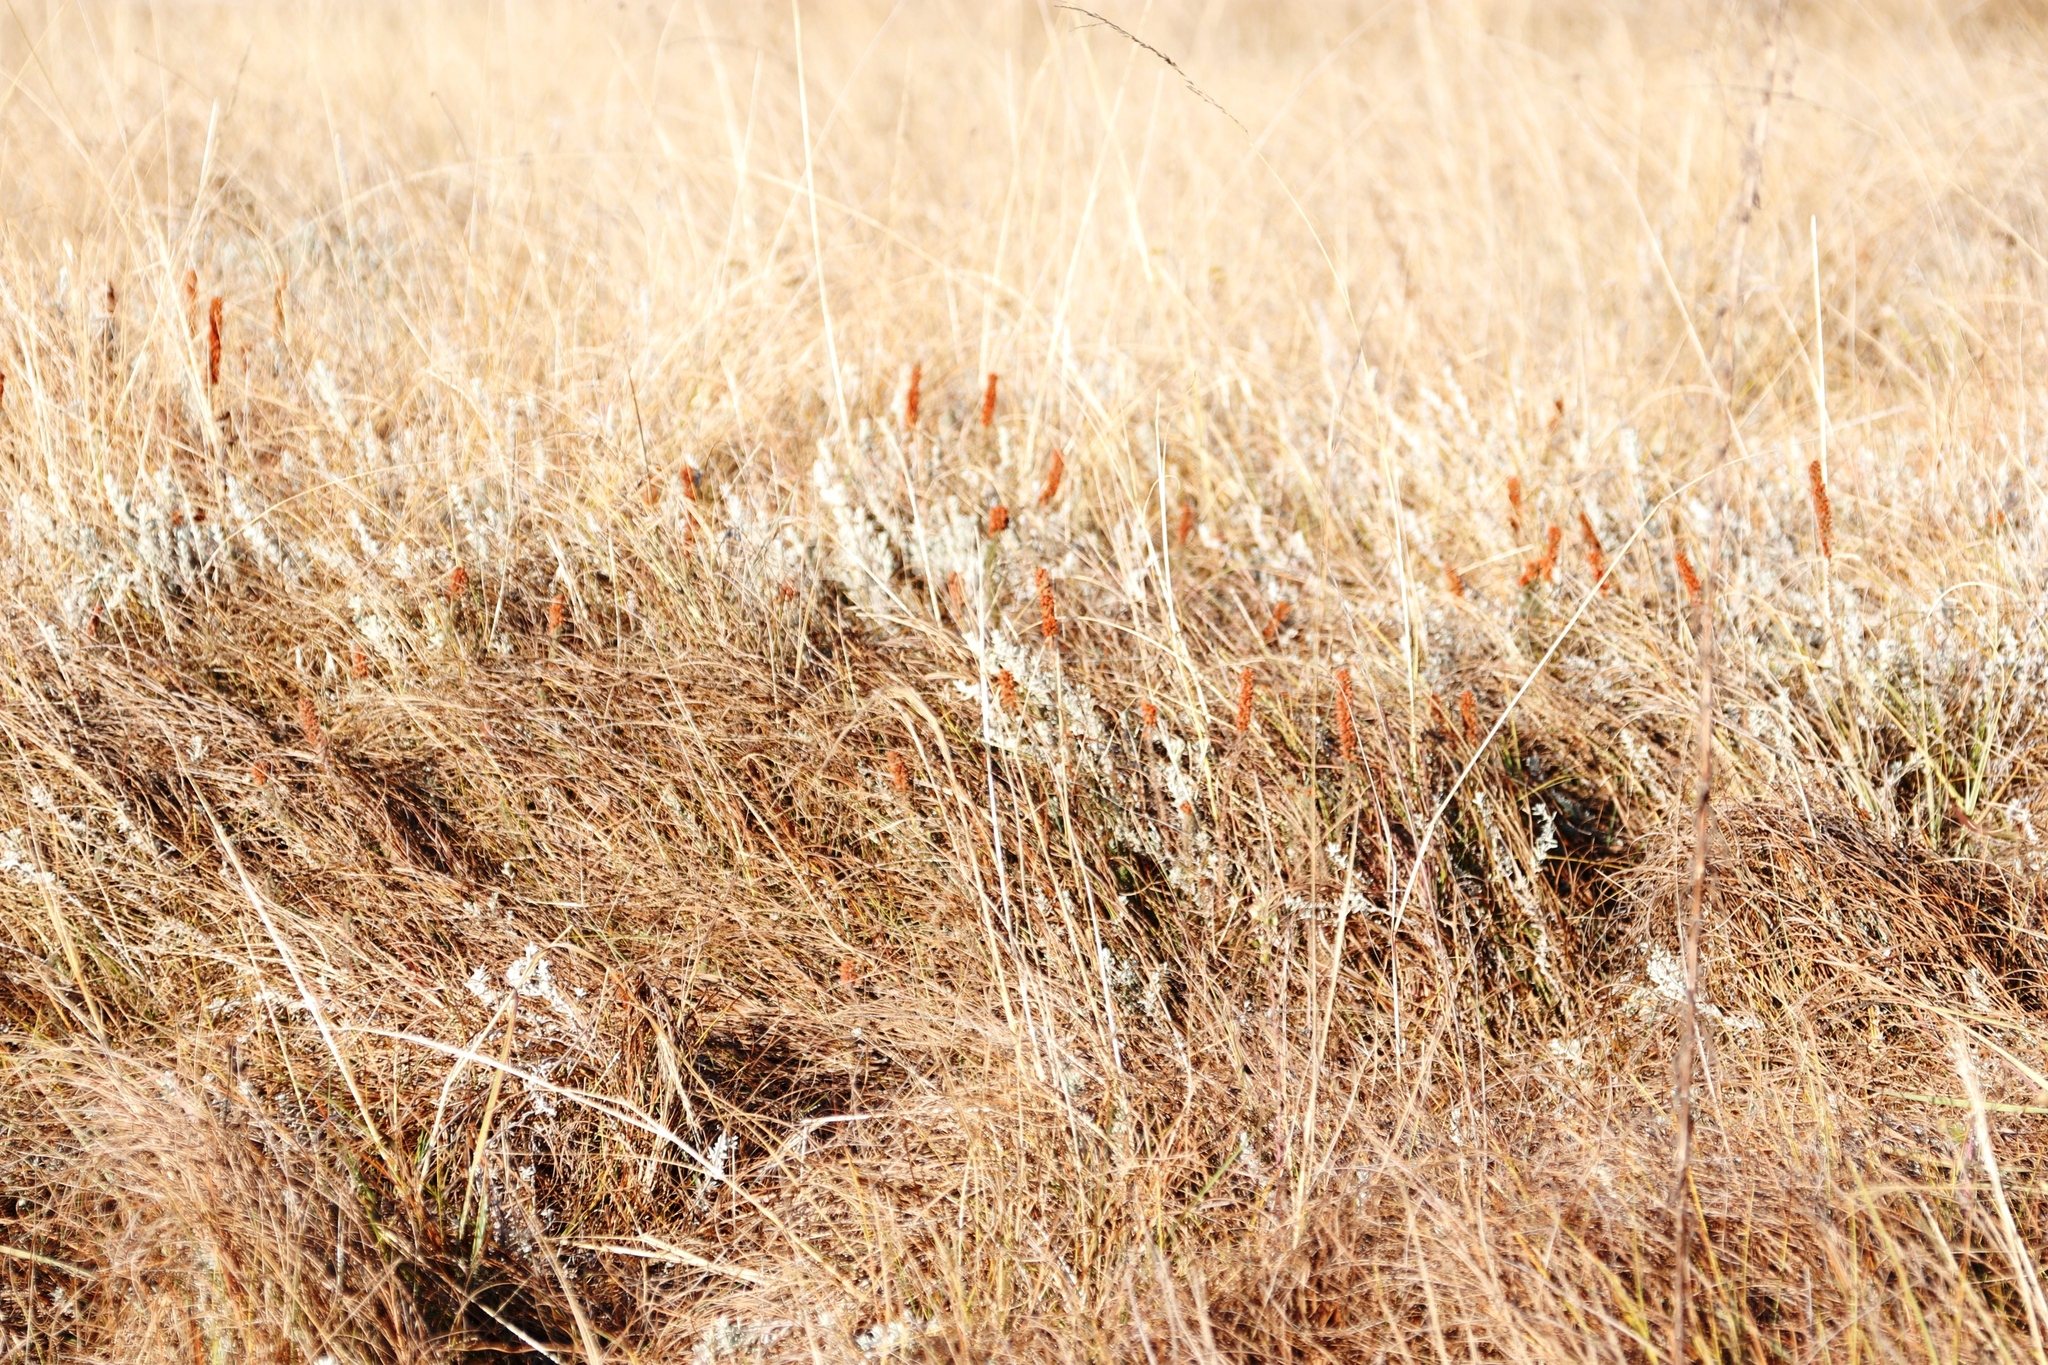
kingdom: Plantae
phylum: Tracheophyta
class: Magnoliopsida
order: Ericales
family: Ericaceae
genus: Erica
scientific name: Erica alopecurus
